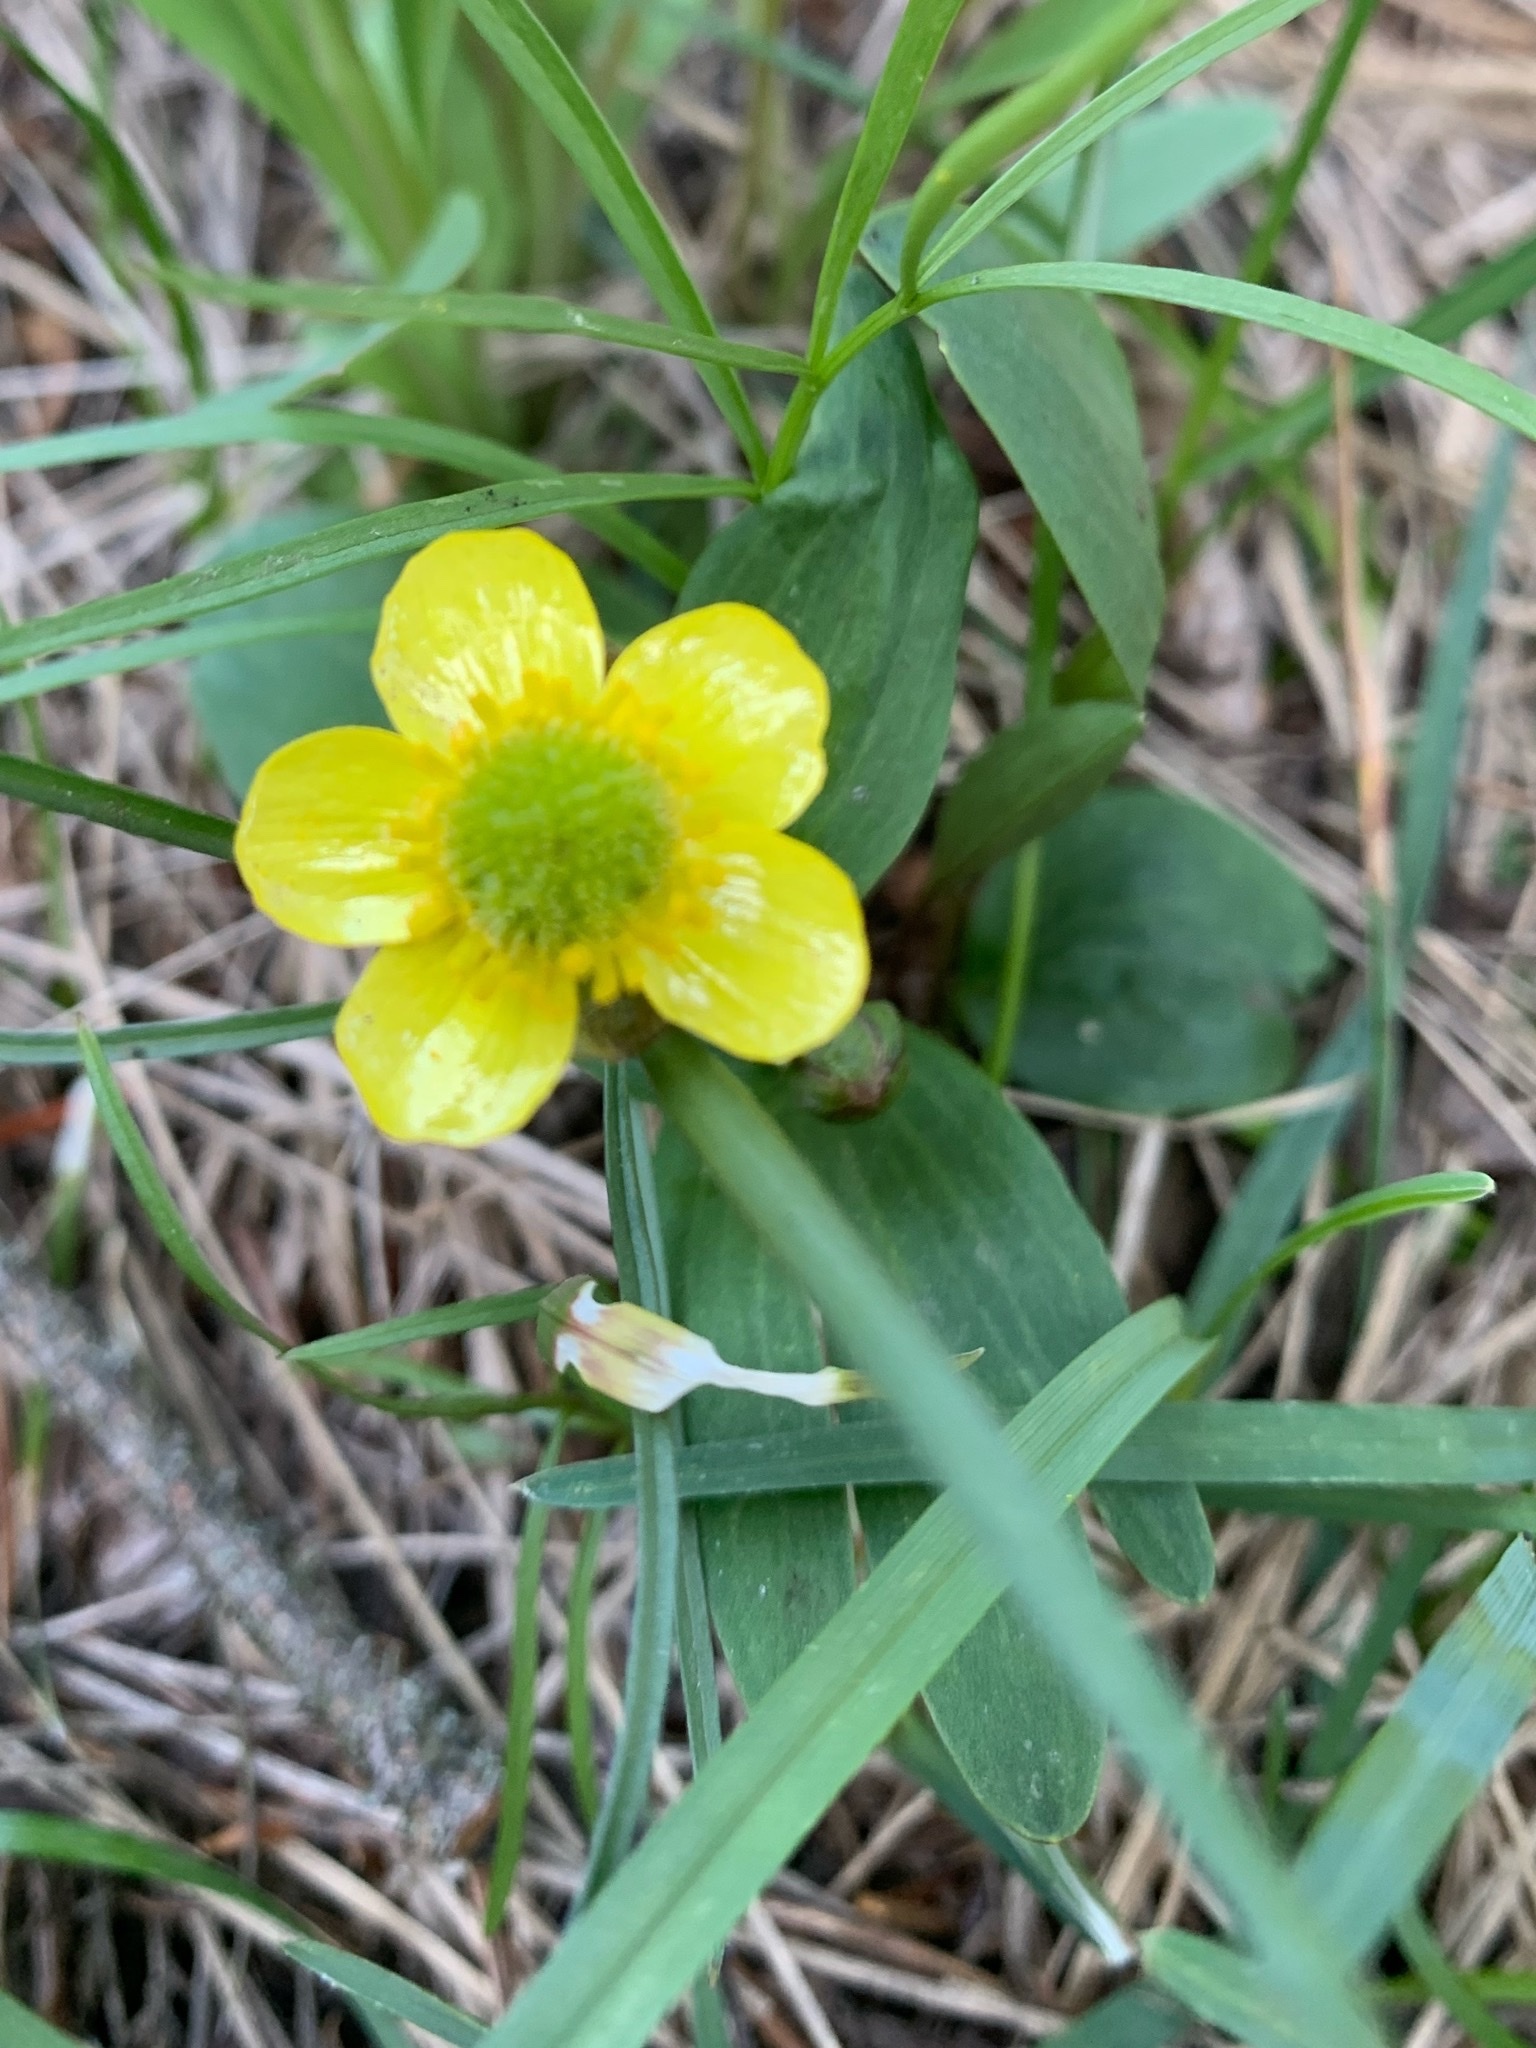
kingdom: Plantae
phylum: Tracheophyta
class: Magnoliopsida
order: Ranunculales
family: Ranunculaceae
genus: Ranunculus
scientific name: Ranunculus glaberrimus
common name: Sagebrush buttercup
